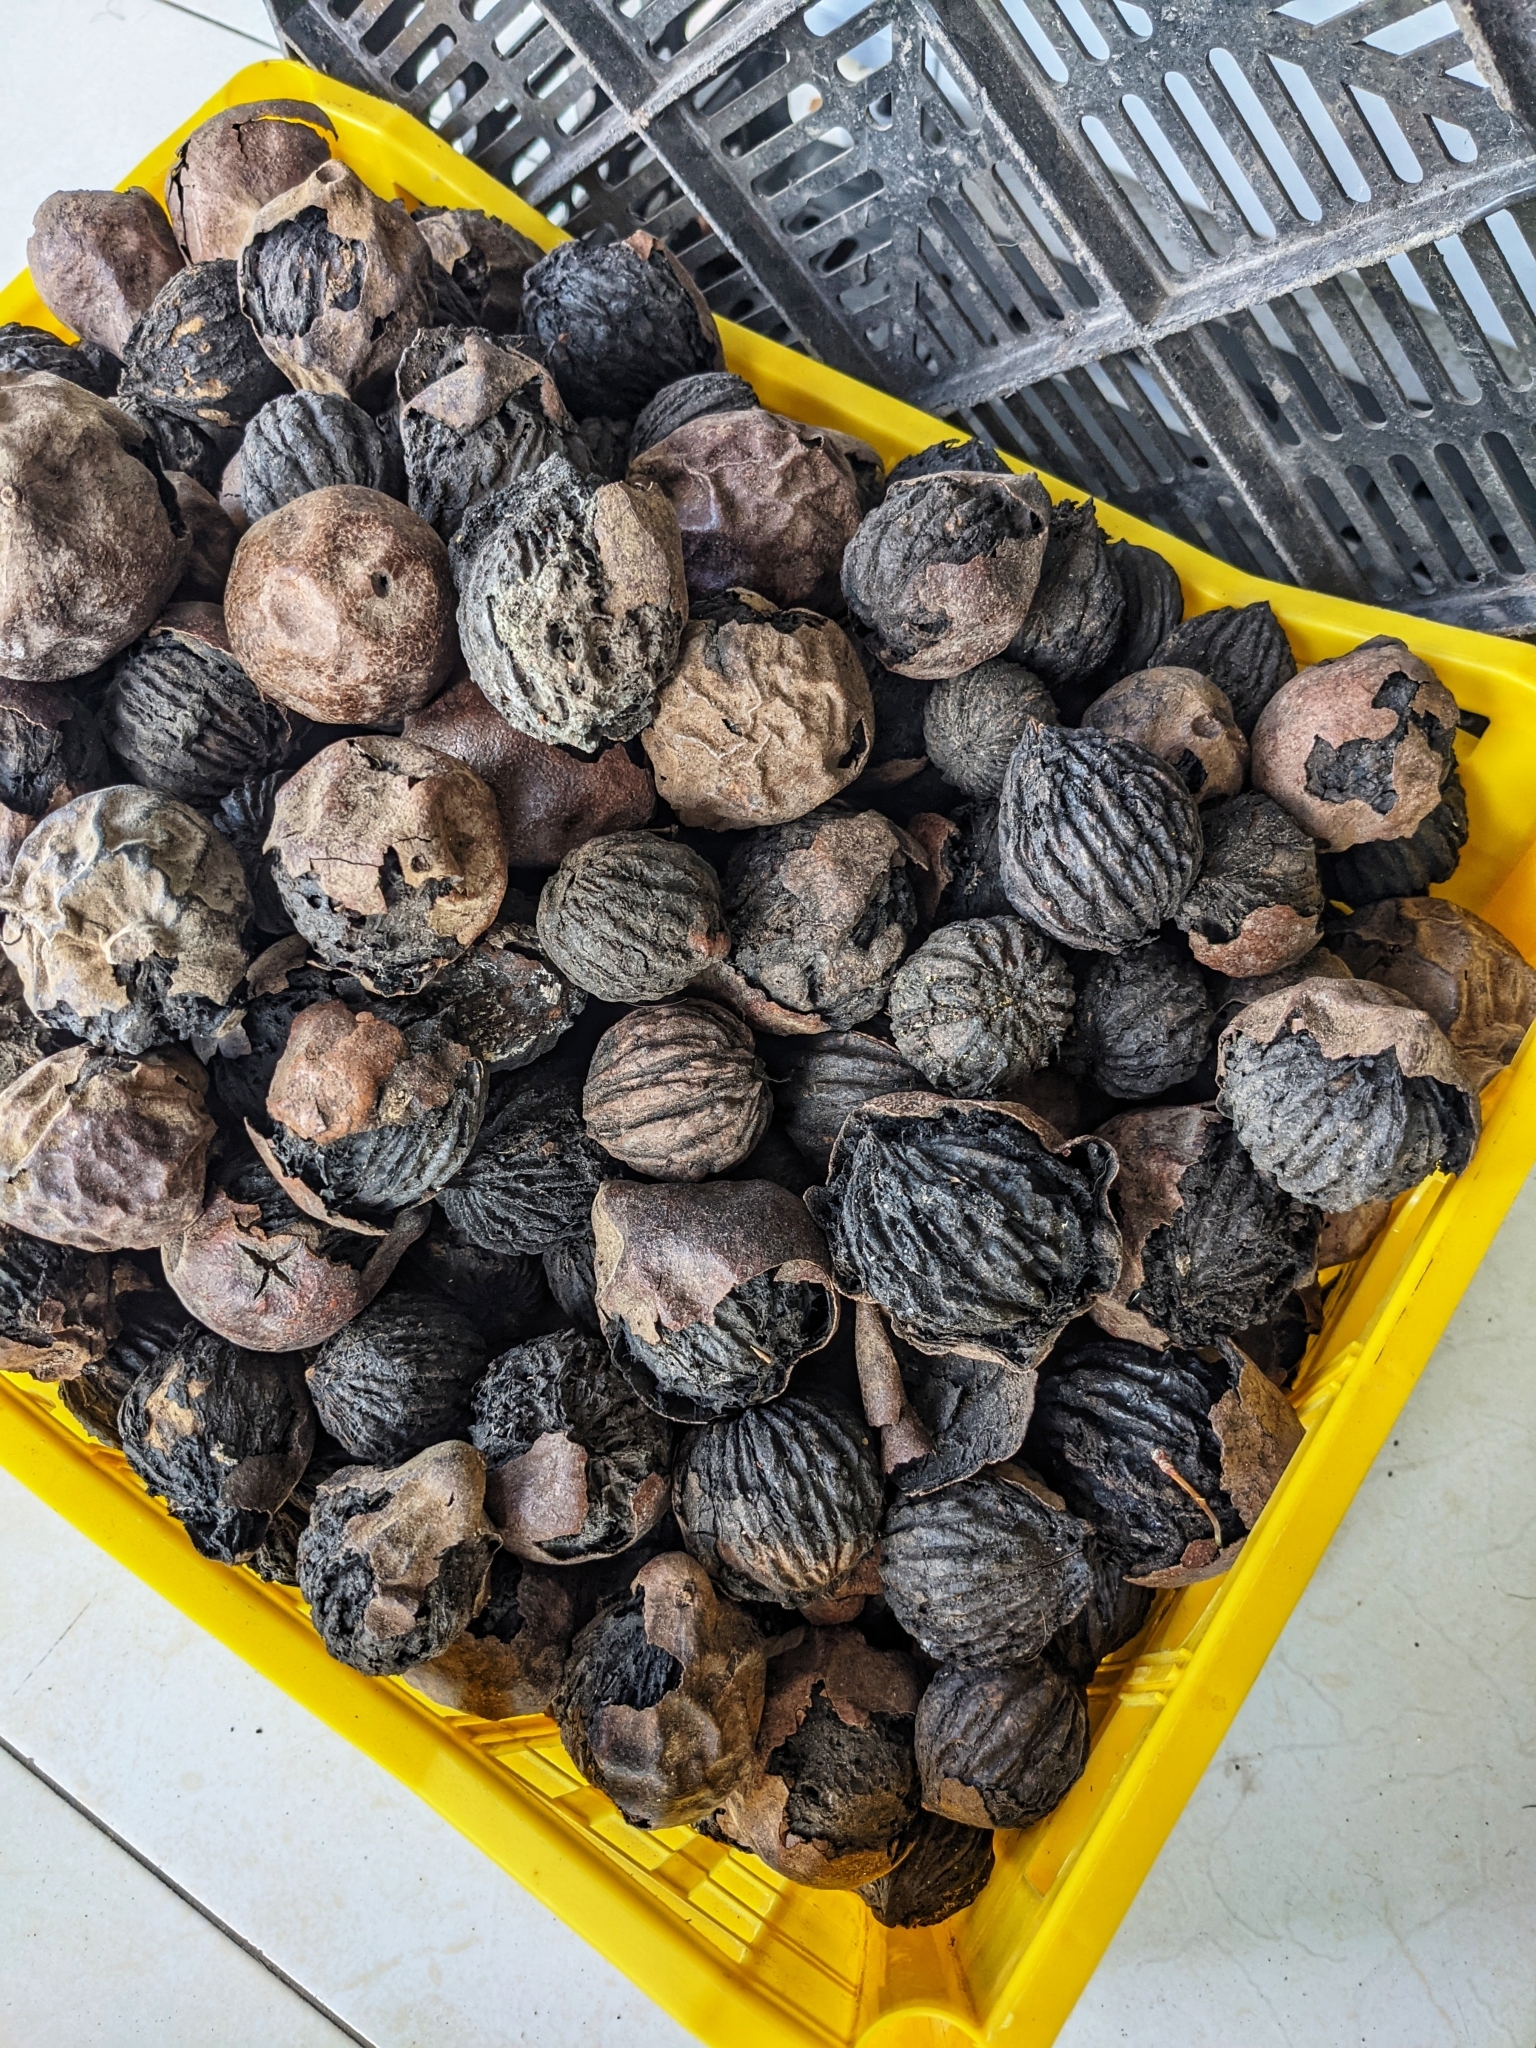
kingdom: Plantae
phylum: Tracheophyta
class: Magnoliopsida
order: Fagales
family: Juglandaceae
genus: Juglans
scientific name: Juglans neotropica
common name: Andean walnut
